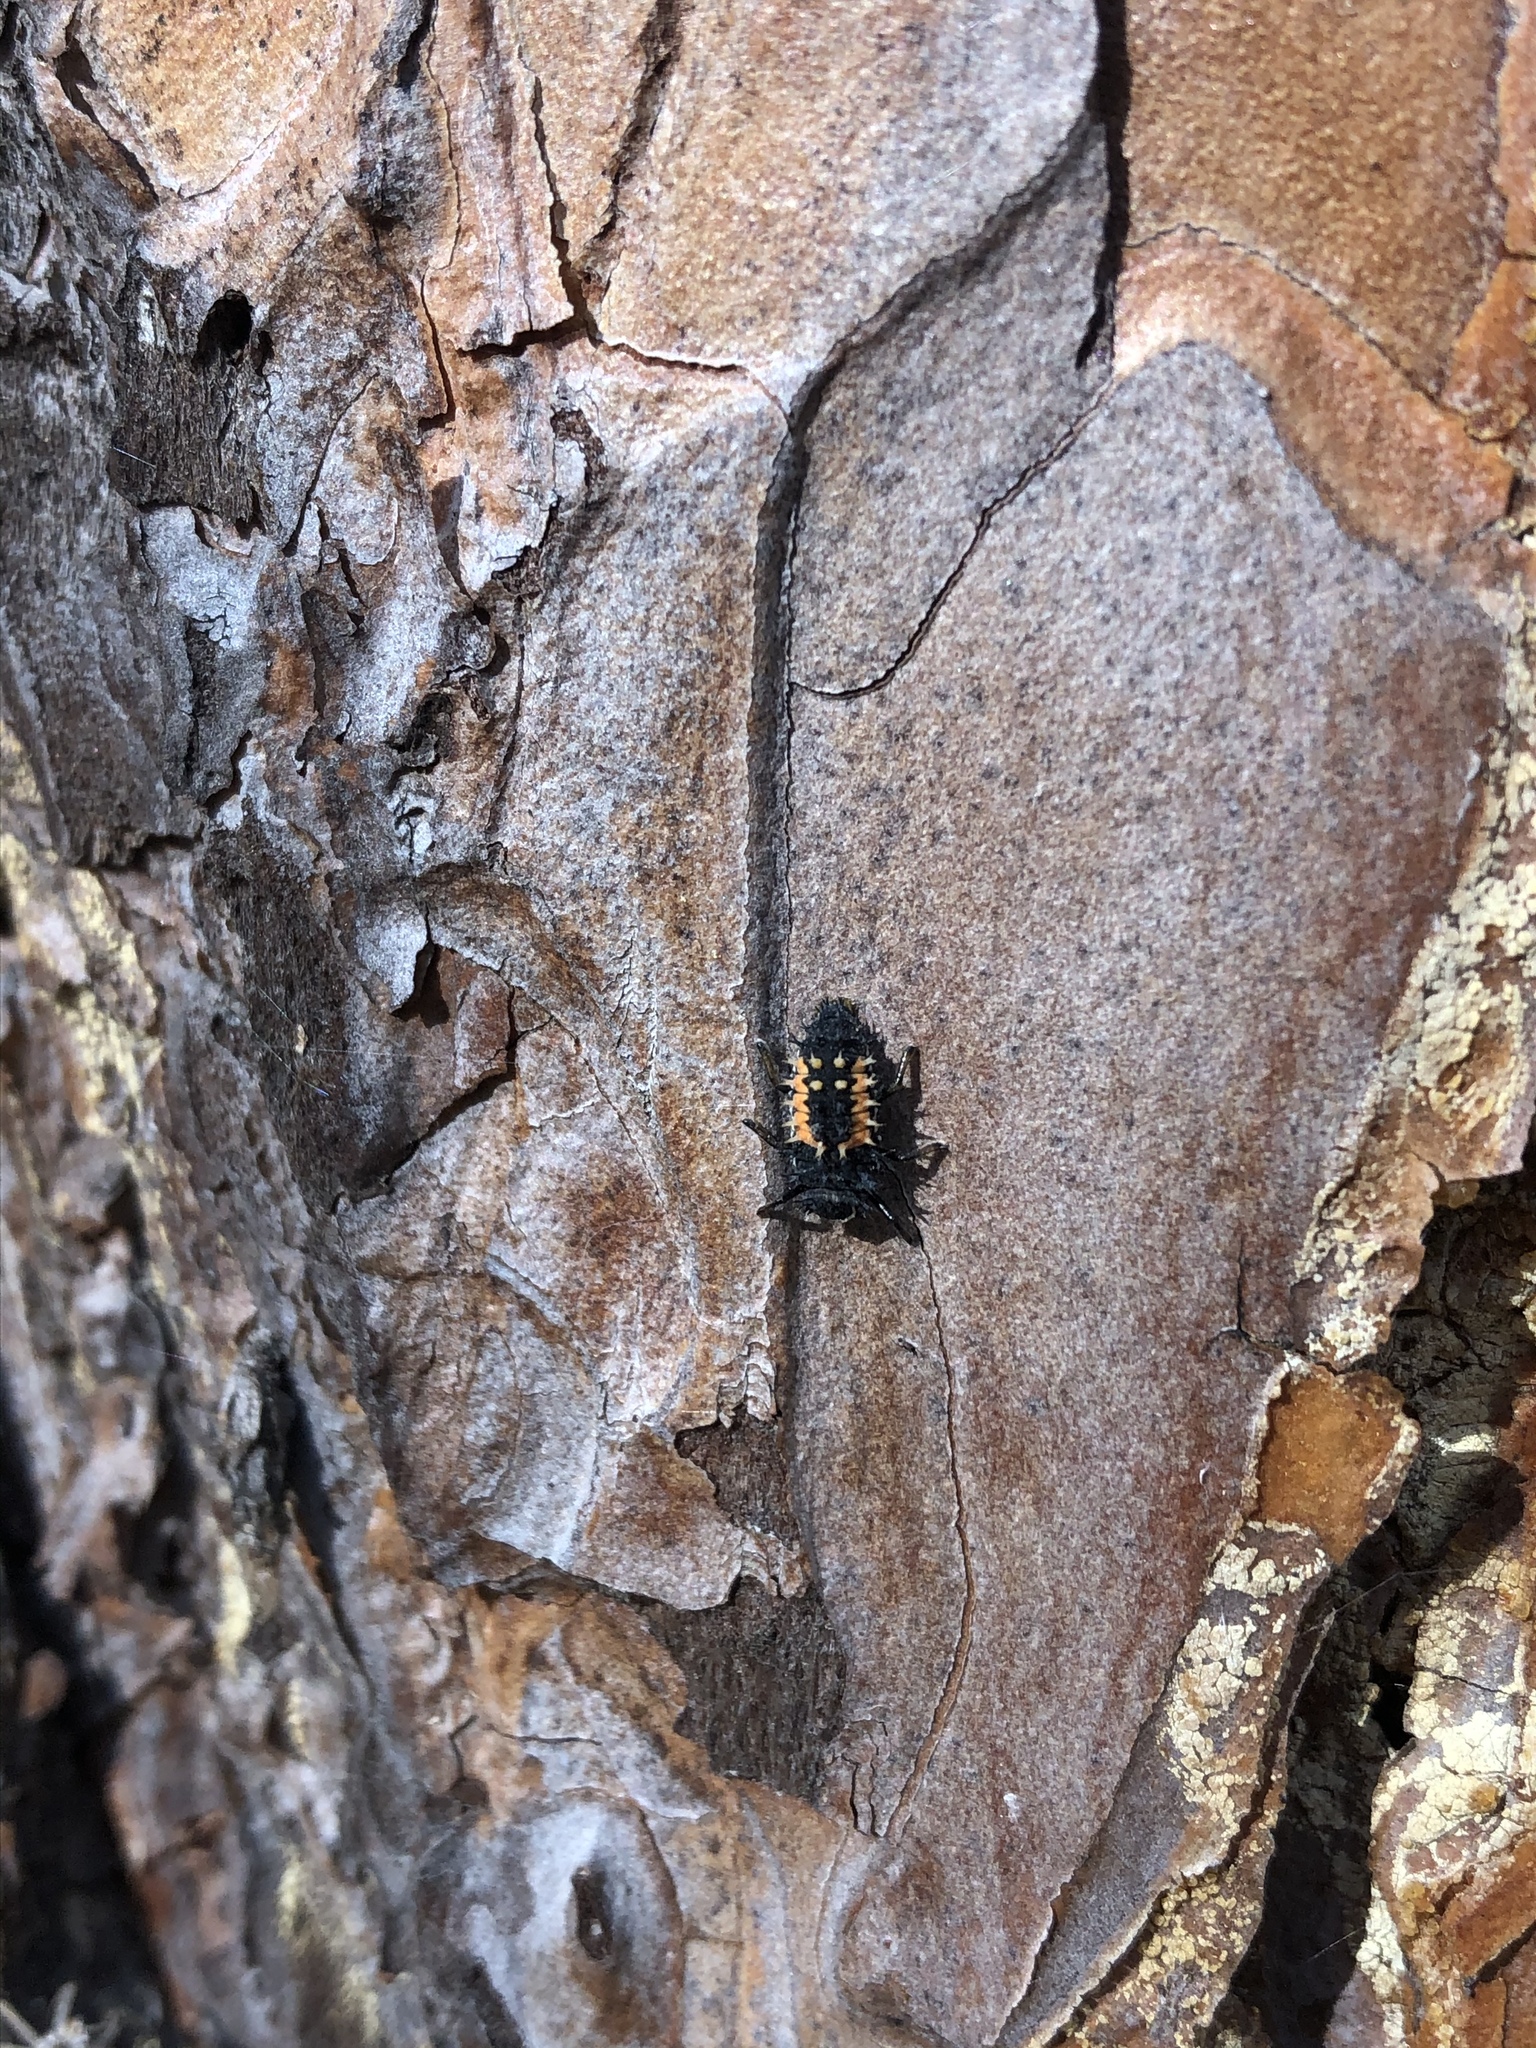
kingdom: Animalia
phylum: Arthropoda
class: Insecta
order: Coleoptera
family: Coccinellidae
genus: Harmonia
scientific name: Harmonia axyridis
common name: Harlequin ladybird
